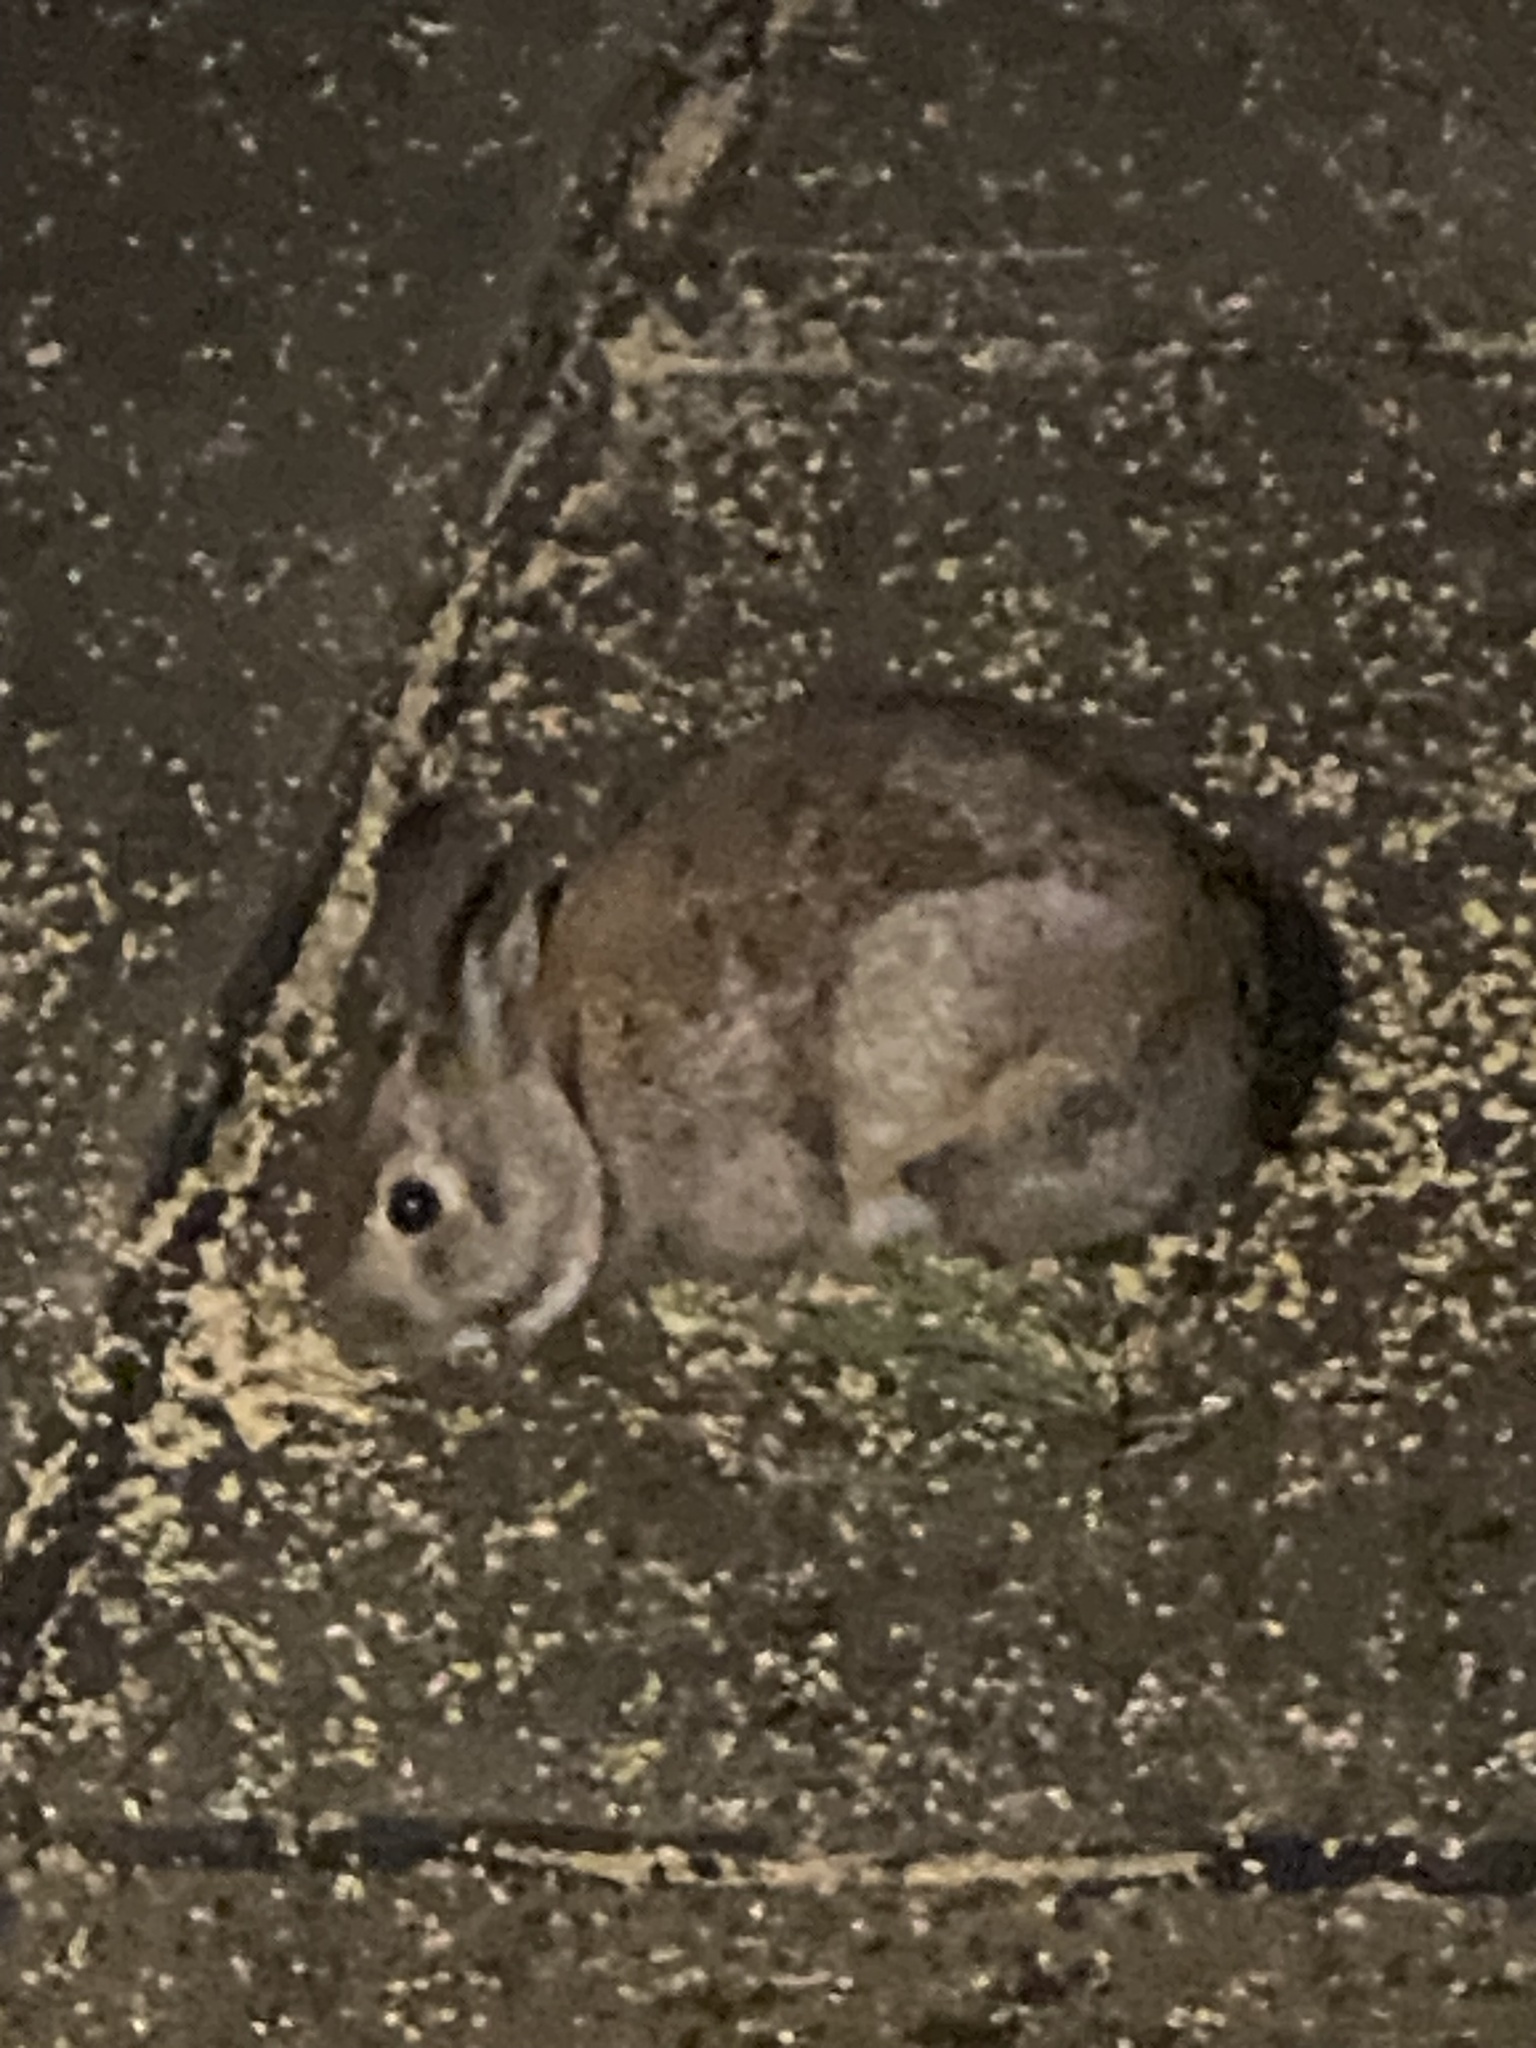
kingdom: Animalia
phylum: Chordata
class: Mammalia
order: Lagomorpha
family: Leporidae
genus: Sylvilagus
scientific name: Sylvilagus floridanus
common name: Eastern cottontail
